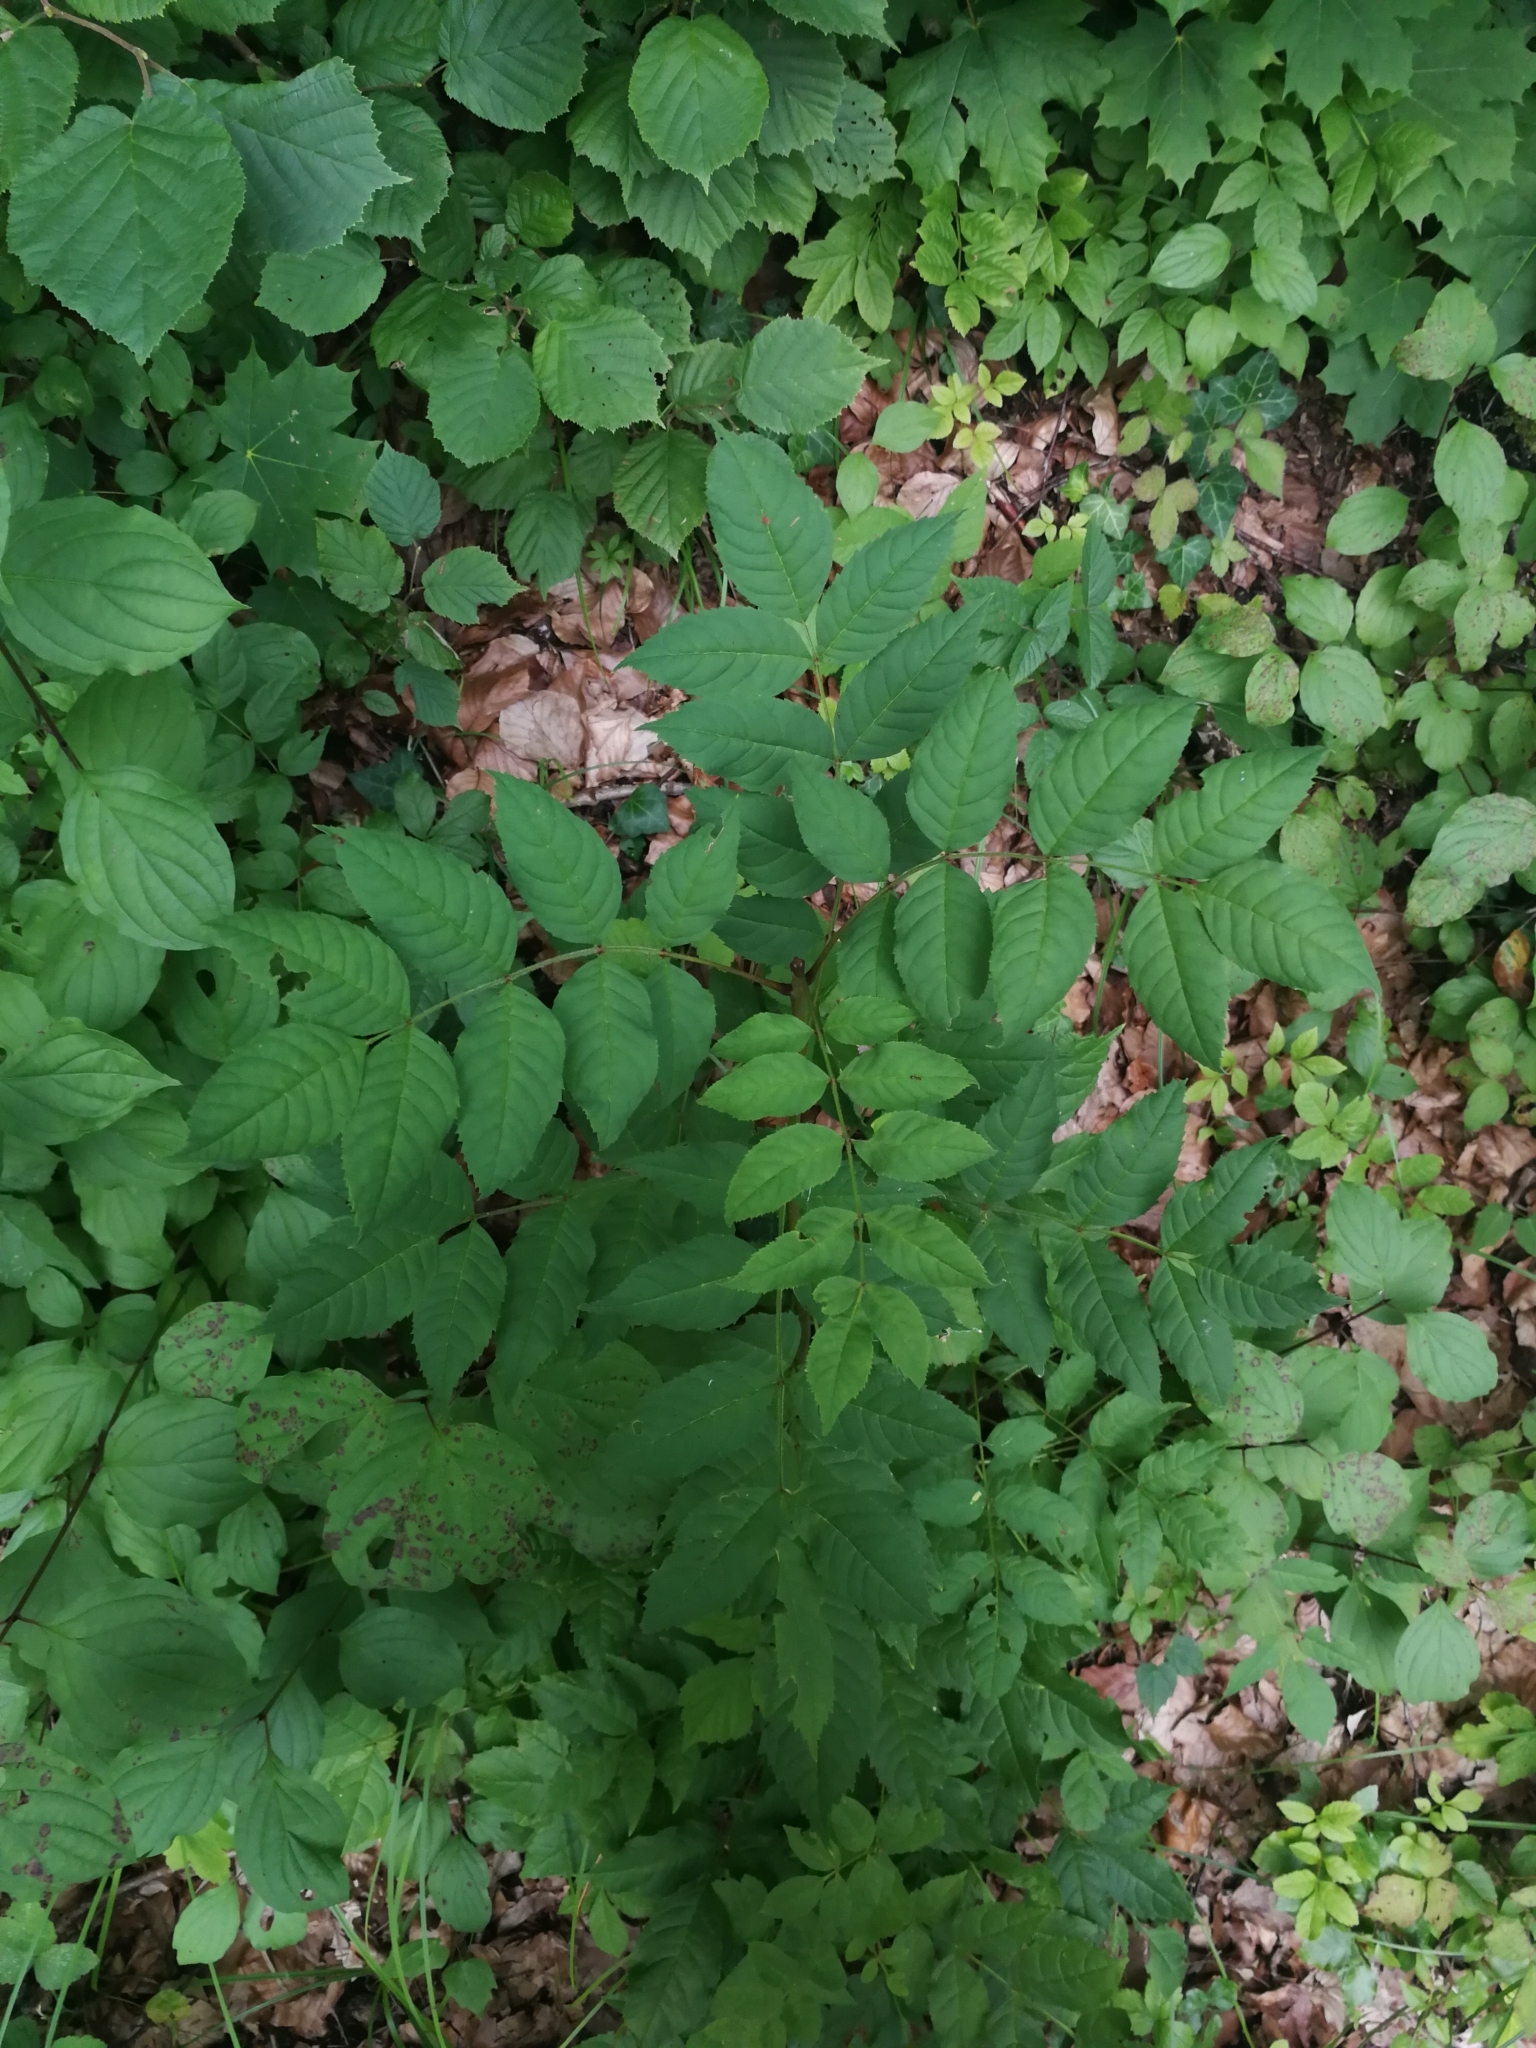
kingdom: Plantae
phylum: Tracheophyta
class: Magnoliopsida
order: Lamiales
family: Oleaceae
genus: Fraxinus
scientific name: Fraxinus excelsior
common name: European ash
